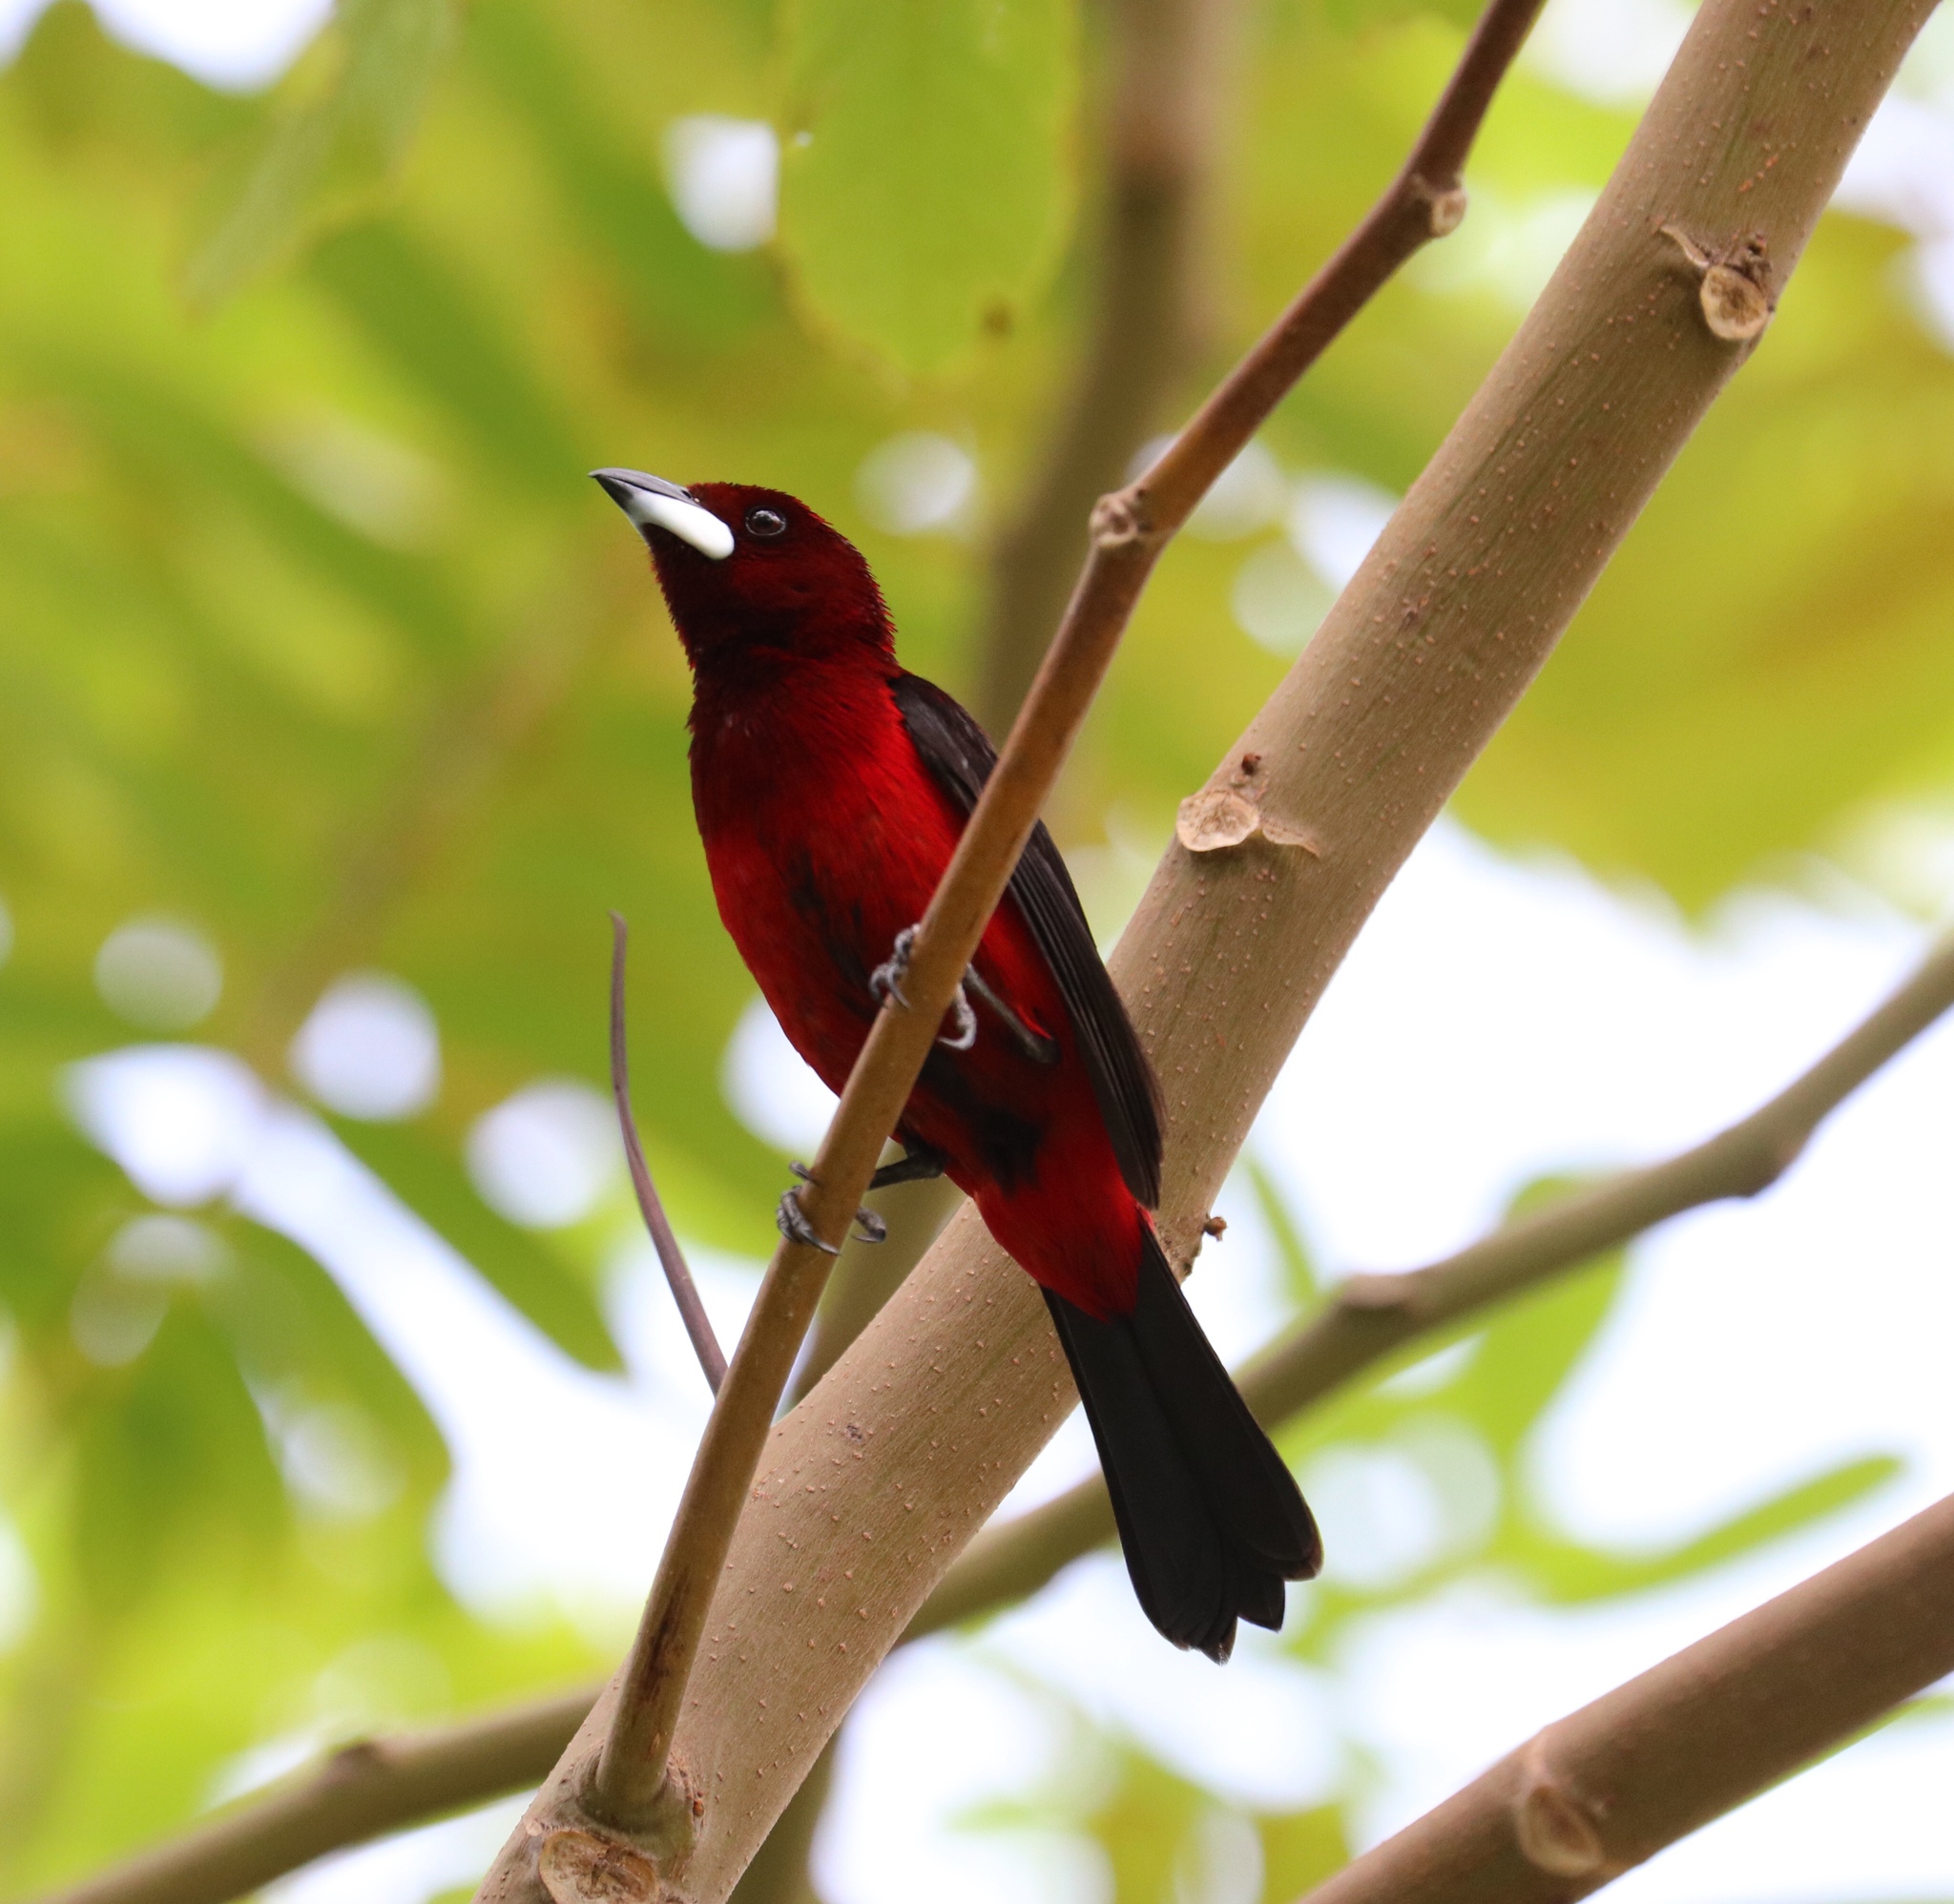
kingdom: Animalia
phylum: Chordata
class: Aves
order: Passeriformes
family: Thraupidae
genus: Ramphocelus
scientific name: Ramphocelus dimidiatus
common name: Crimson-backed tanager
